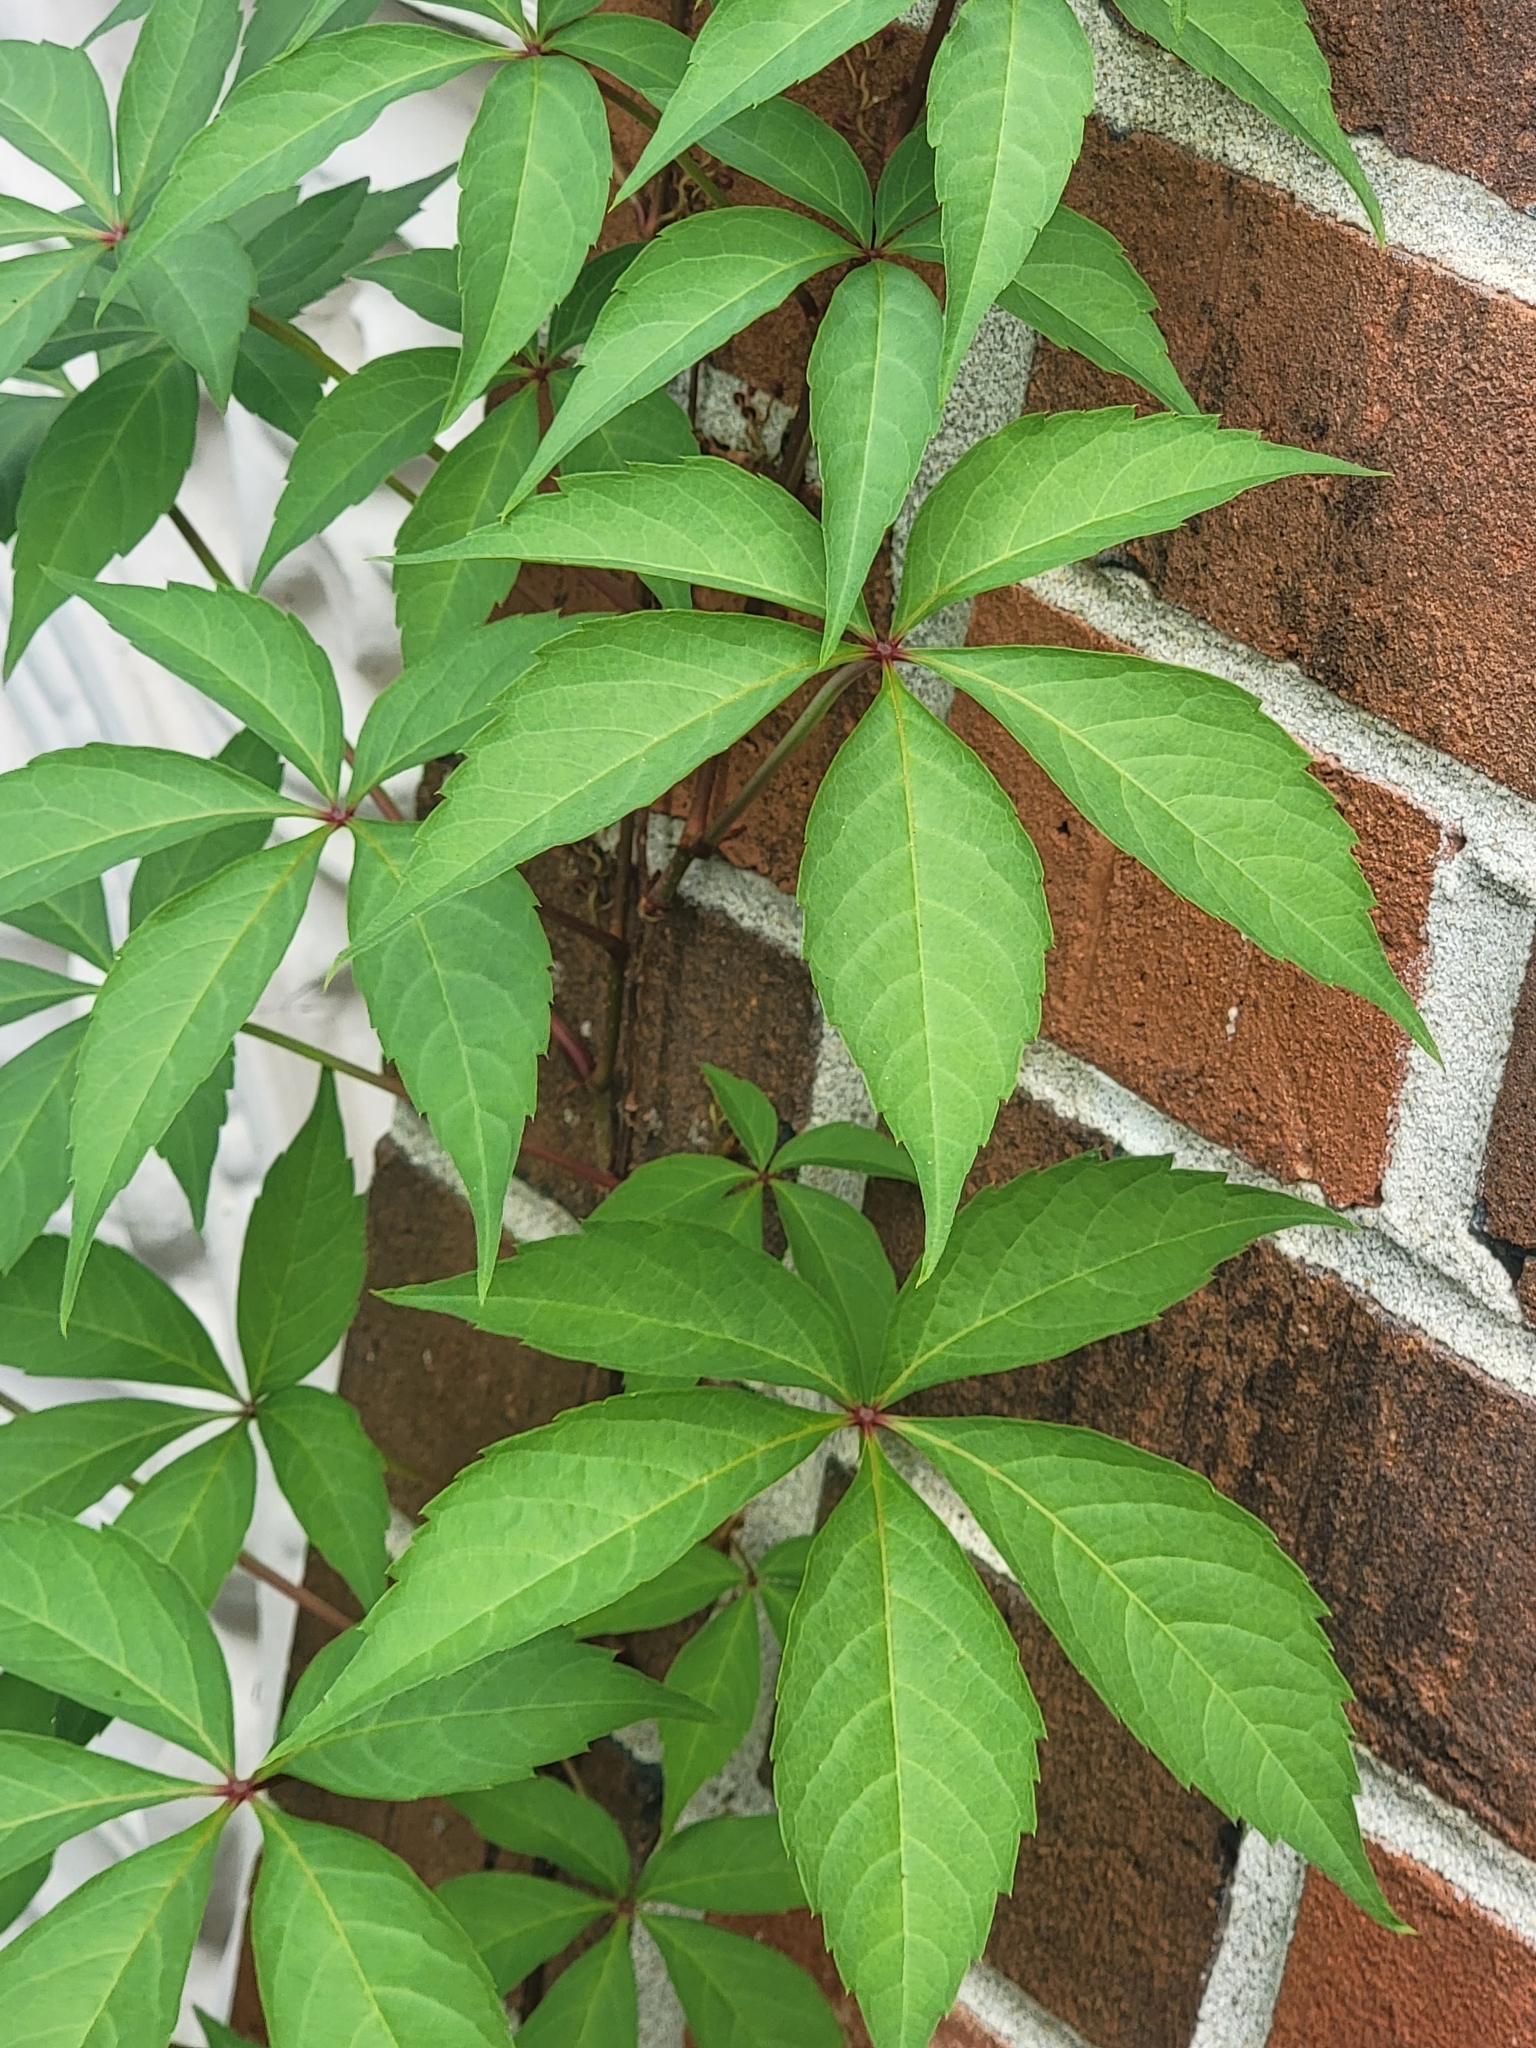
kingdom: Plantae
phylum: Tracheophyta
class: Magnoliopsida
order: Vitales
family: Vitaceae
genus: Parthenocissus
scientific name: Parthenocissus quinquefolia
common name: Virginia-creeper
